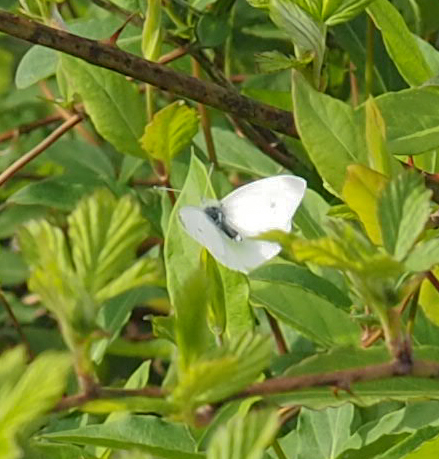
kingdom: Animalia
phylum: Arthropoda
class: Insecta
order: Lepidoptera
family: Pieridae
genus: Pieris
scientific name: Pieris rapae
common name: Small white
